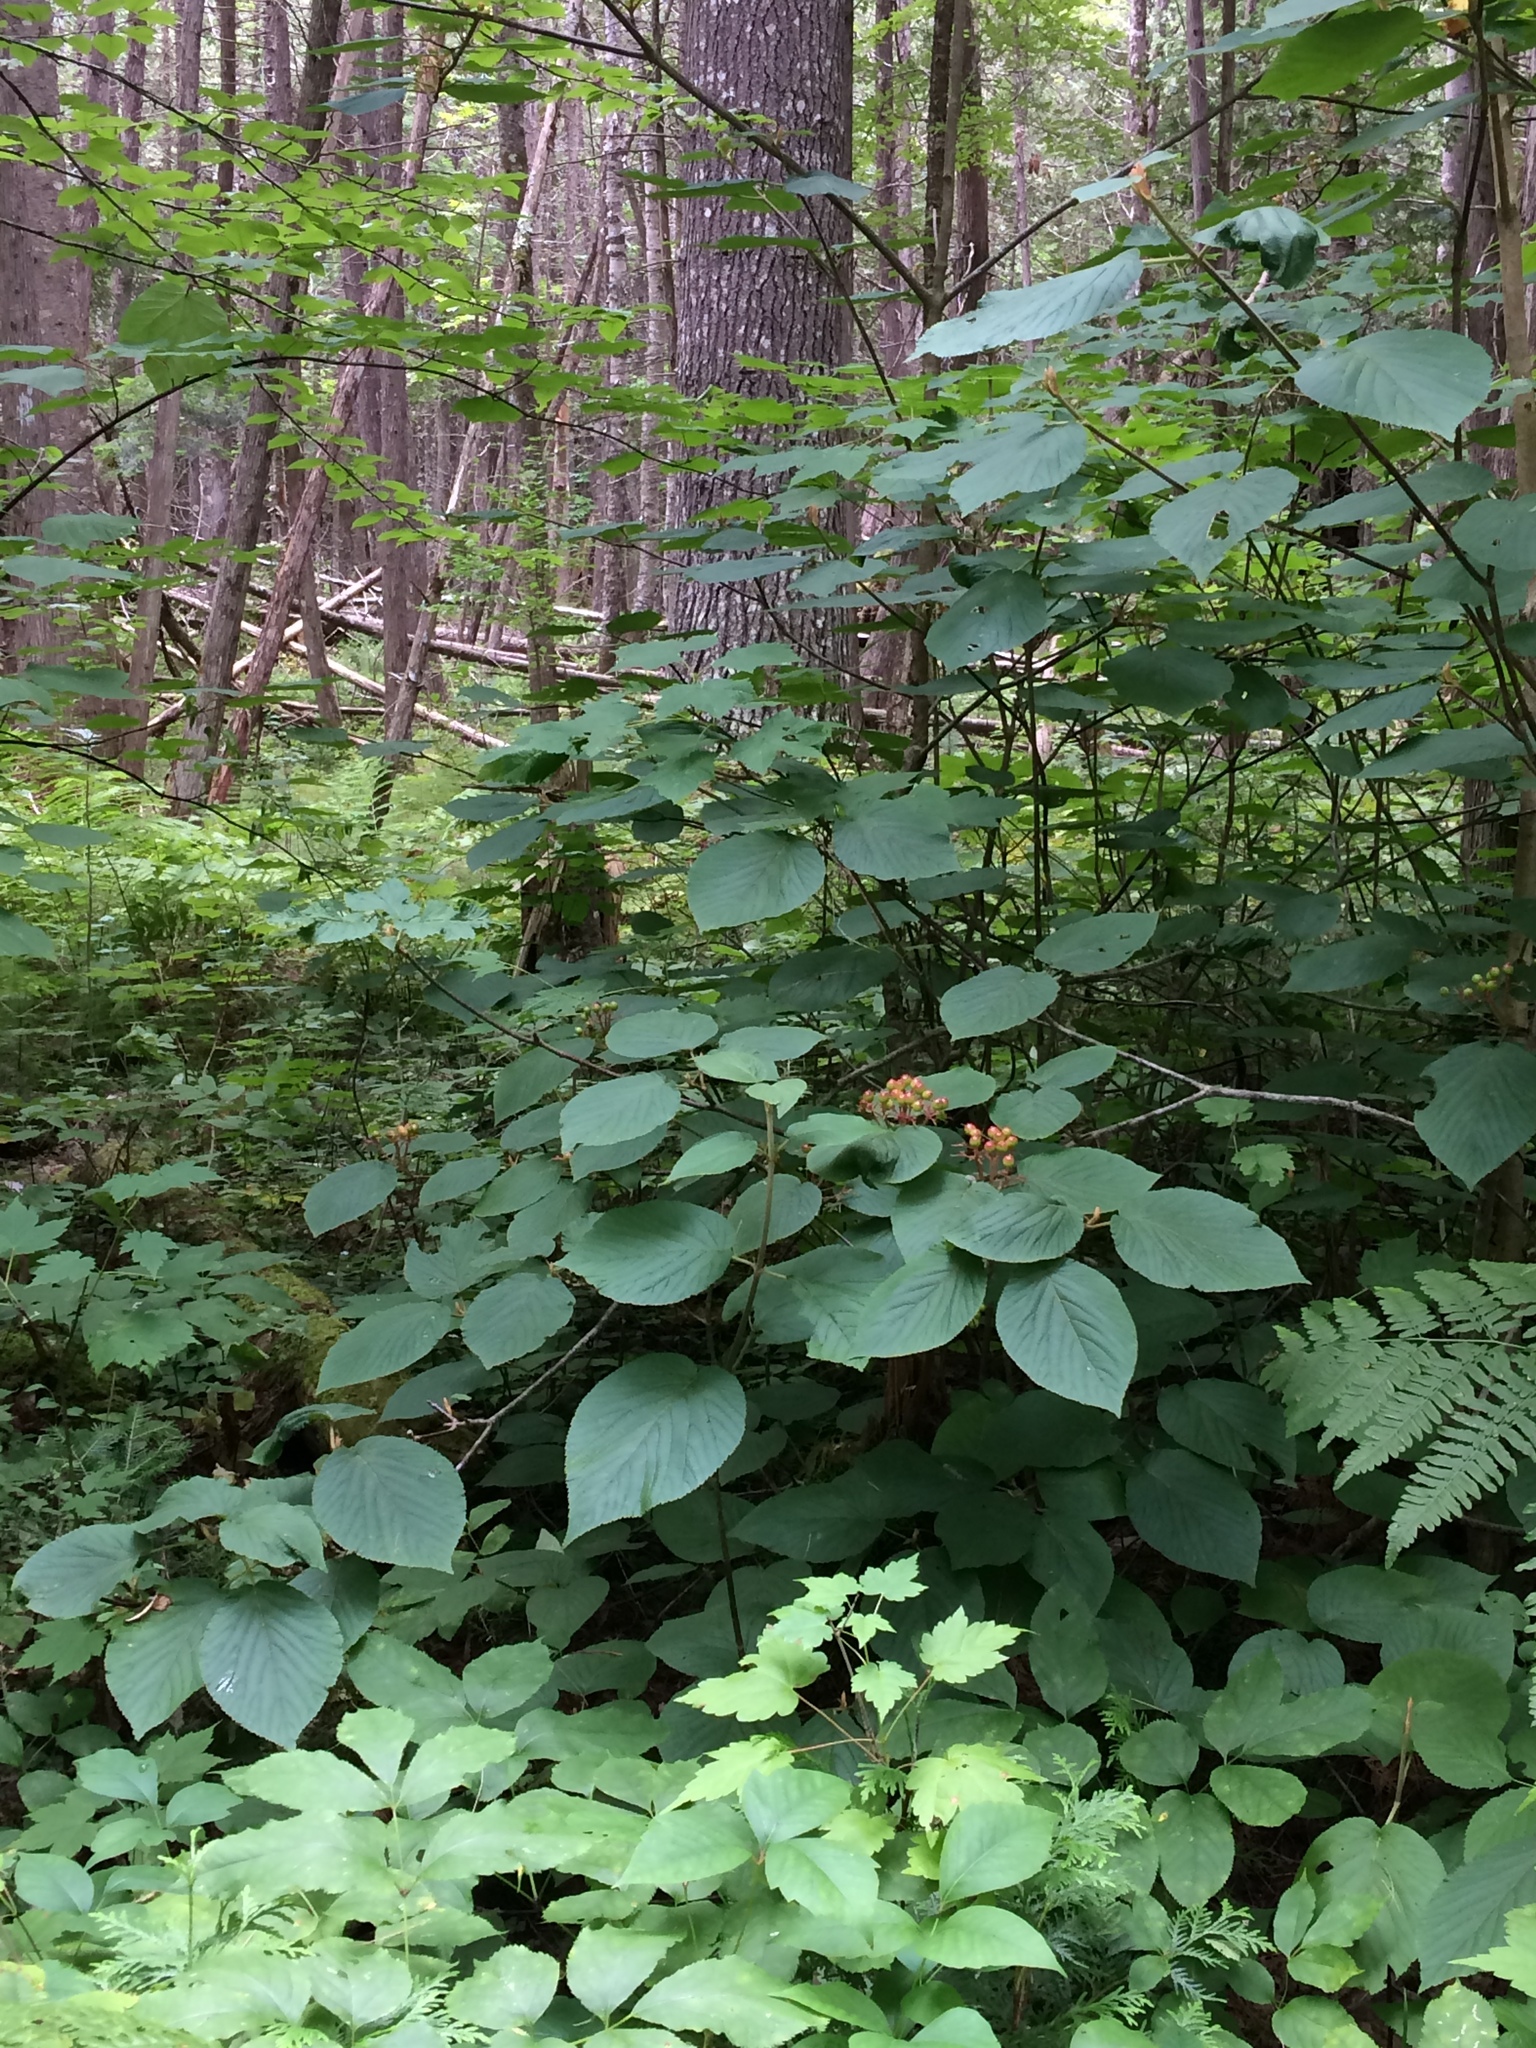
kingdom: Plantae
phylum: Tracheophyta
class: Magnoliopsida
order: Dipsacales
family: Viburnaceae
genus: Viburnum
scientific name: Viburnum lantanoides
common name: Hobblebush
